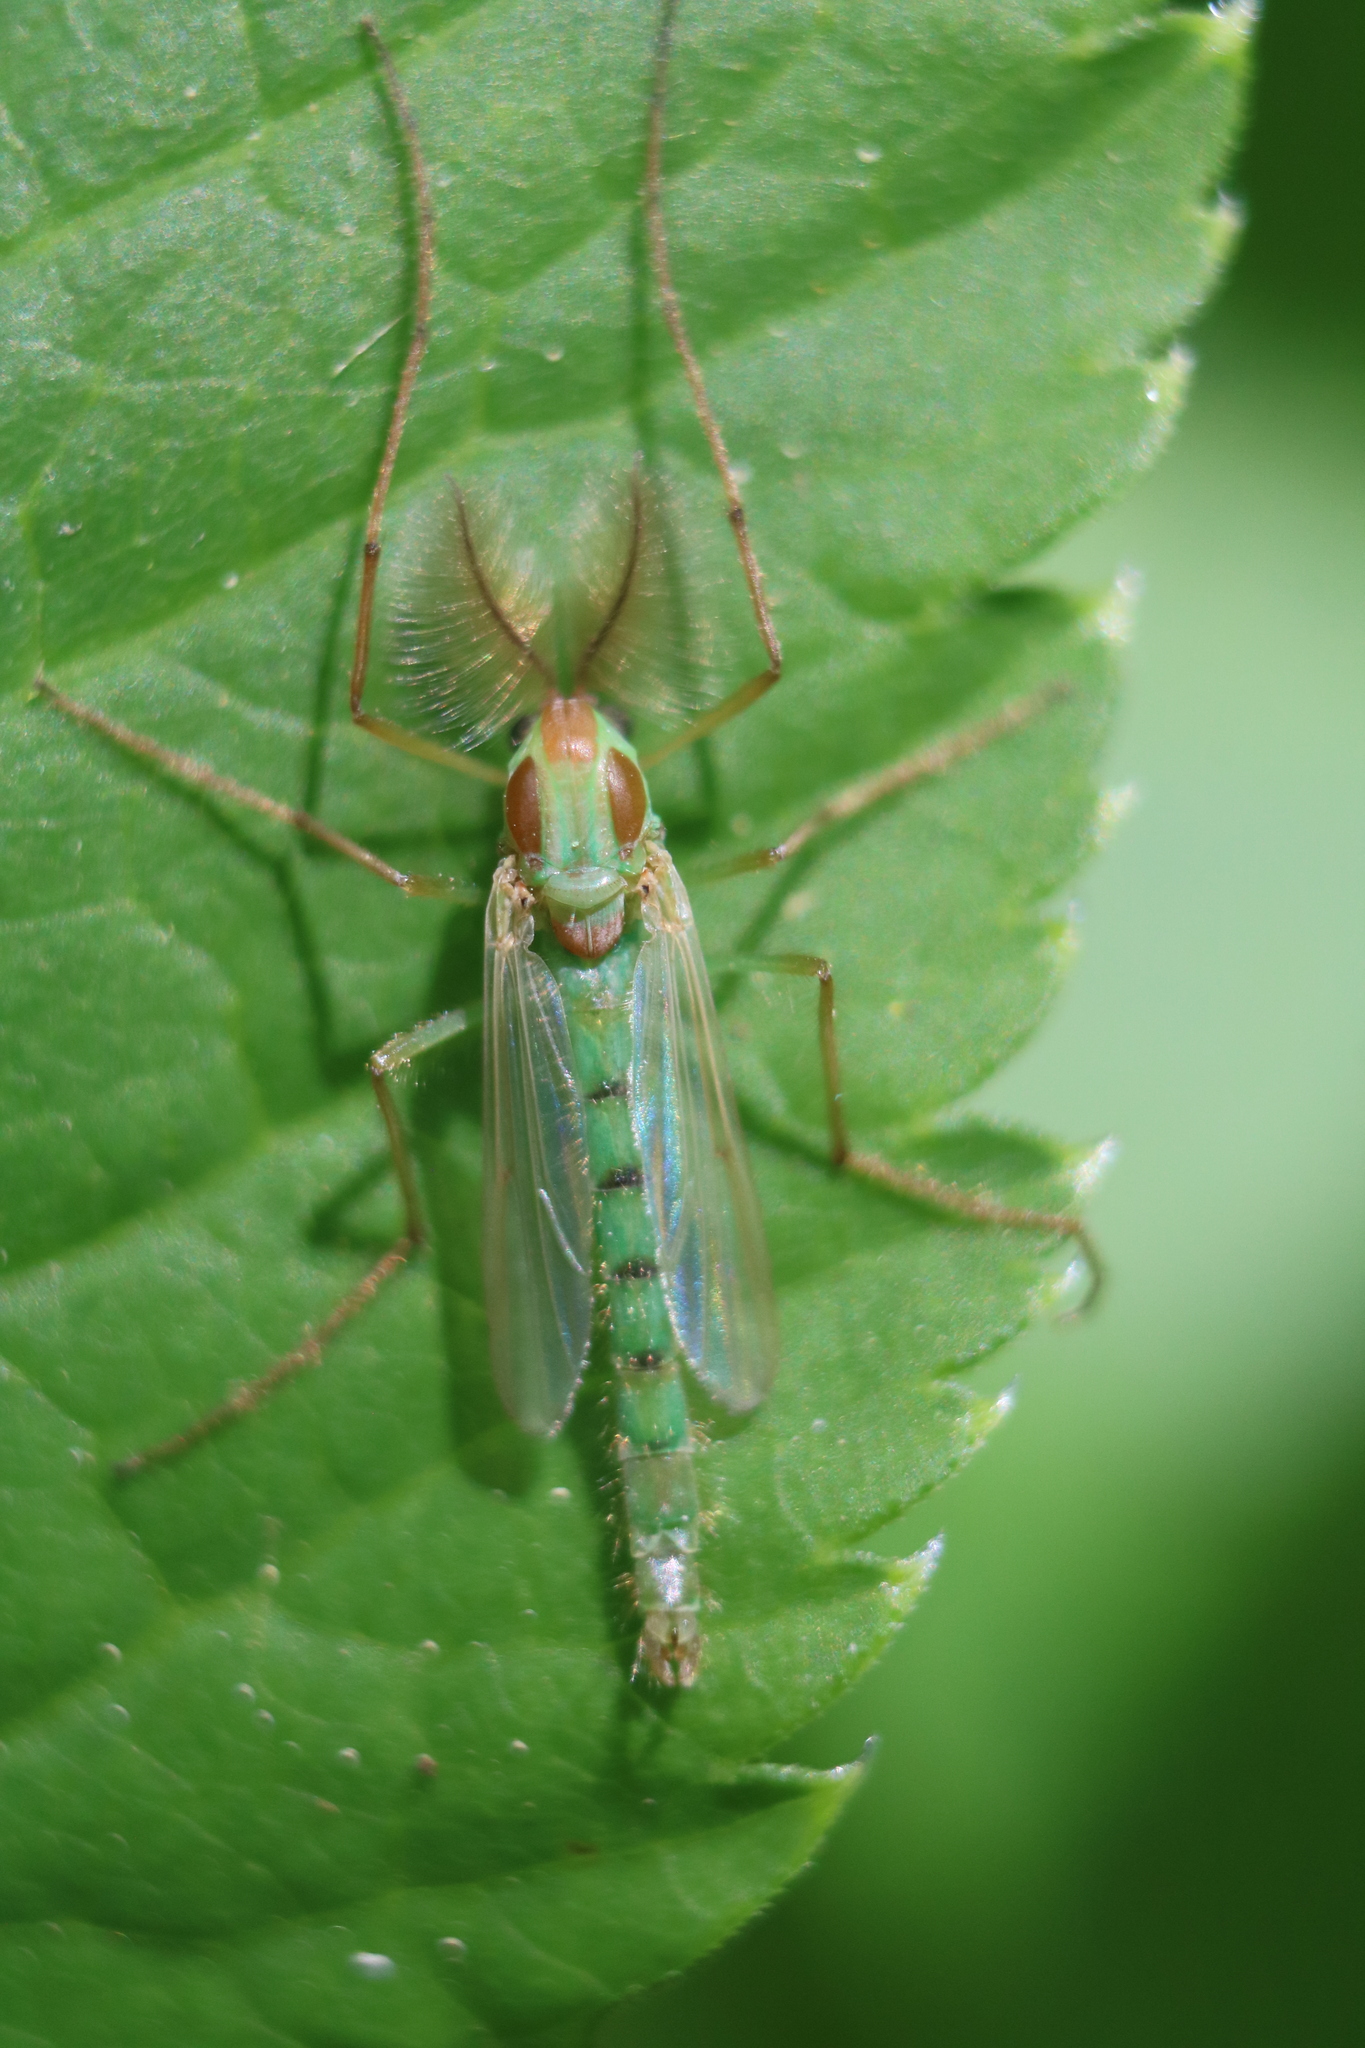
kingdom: Animalia
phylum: Arthropoda
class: Insecta
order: Diptera
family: Chironomidae
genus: Axarus
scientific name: Axarus
